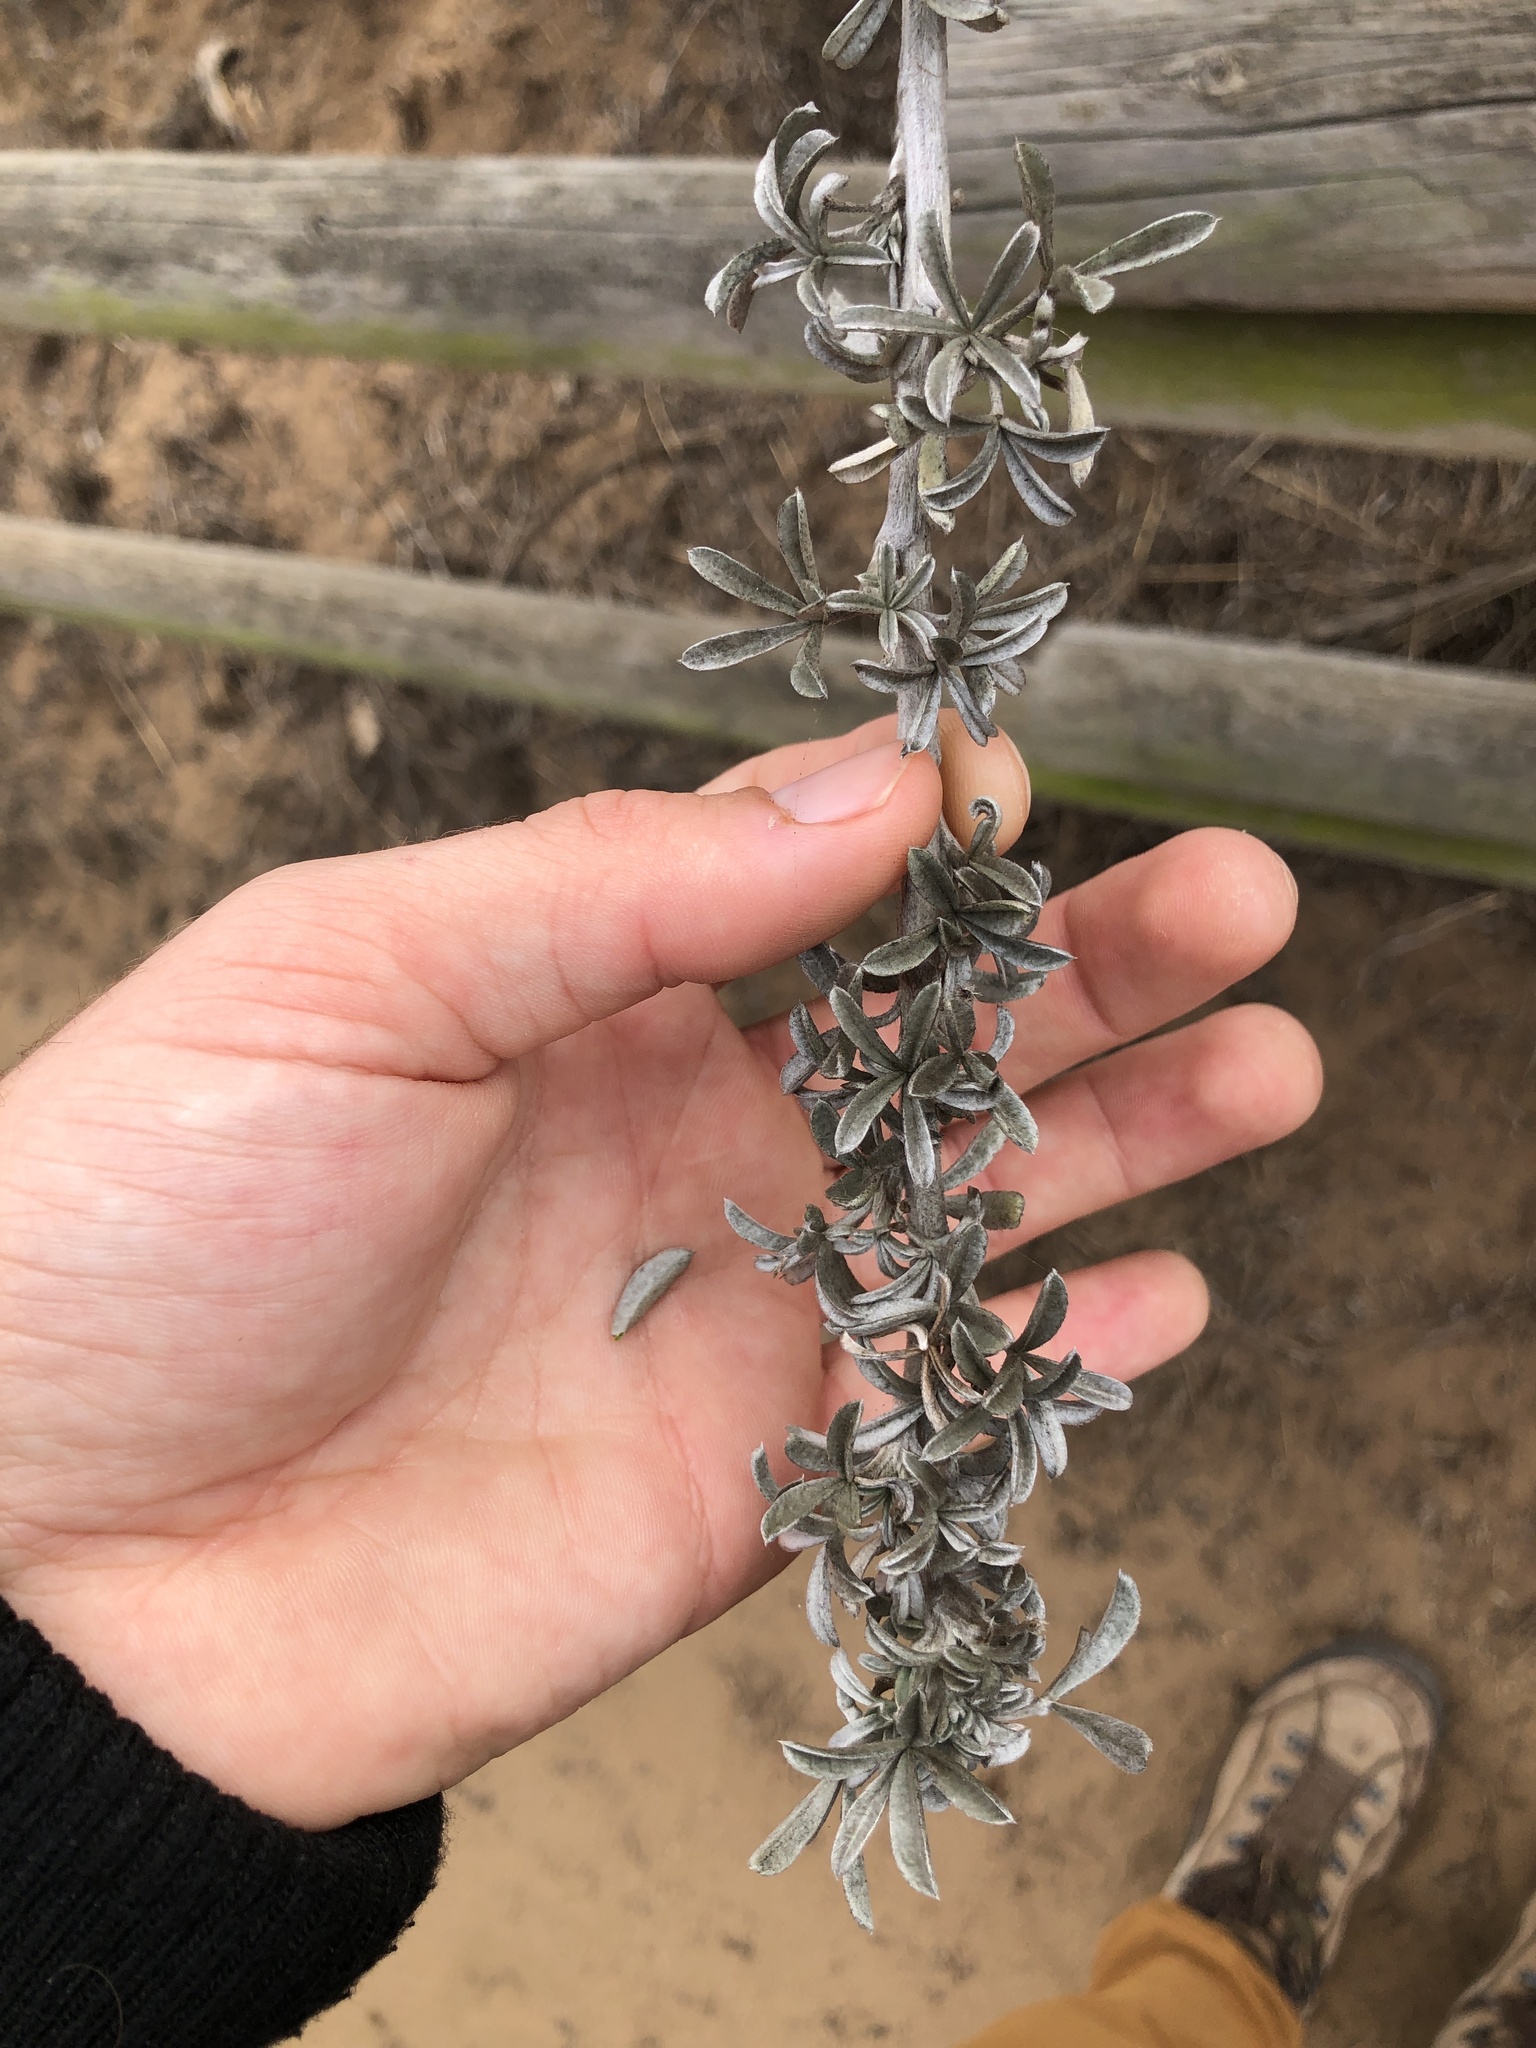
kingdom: Plantae
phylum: Tracheophyta
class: Magnoliopsida
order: Fabales
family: Fabaceae
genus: Lupinus
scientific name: Lupinus chamissonis
